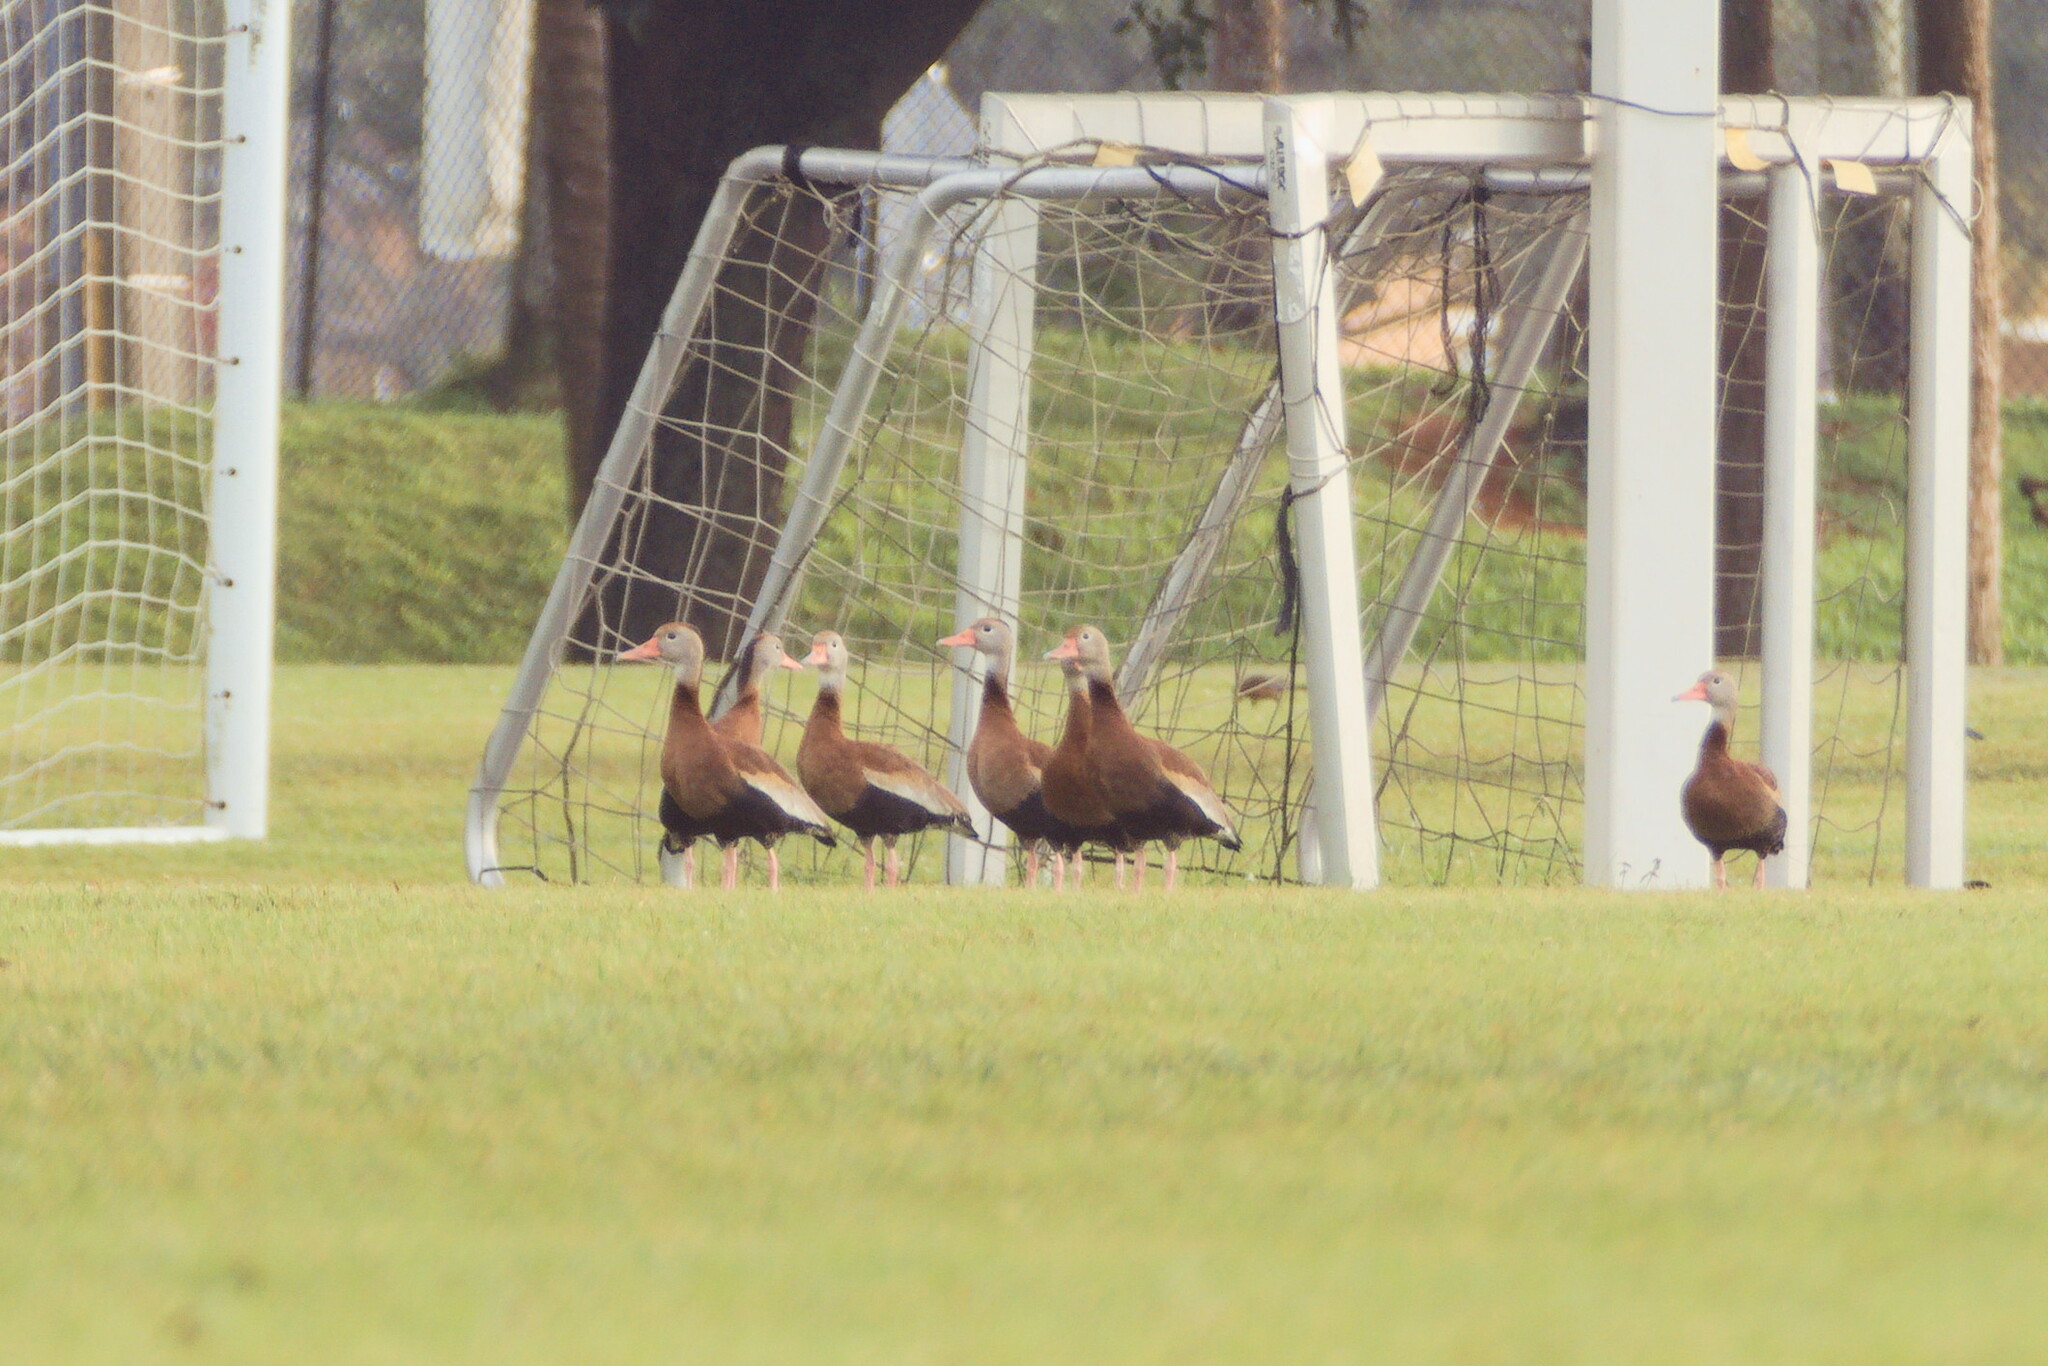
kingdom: Animalia
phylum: Chordata
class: Aves
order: Anseriformes
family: Anatidae
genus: Dendrocygna
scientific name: Dendrocygna autumnalis
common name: Black-bellied whistling duck
